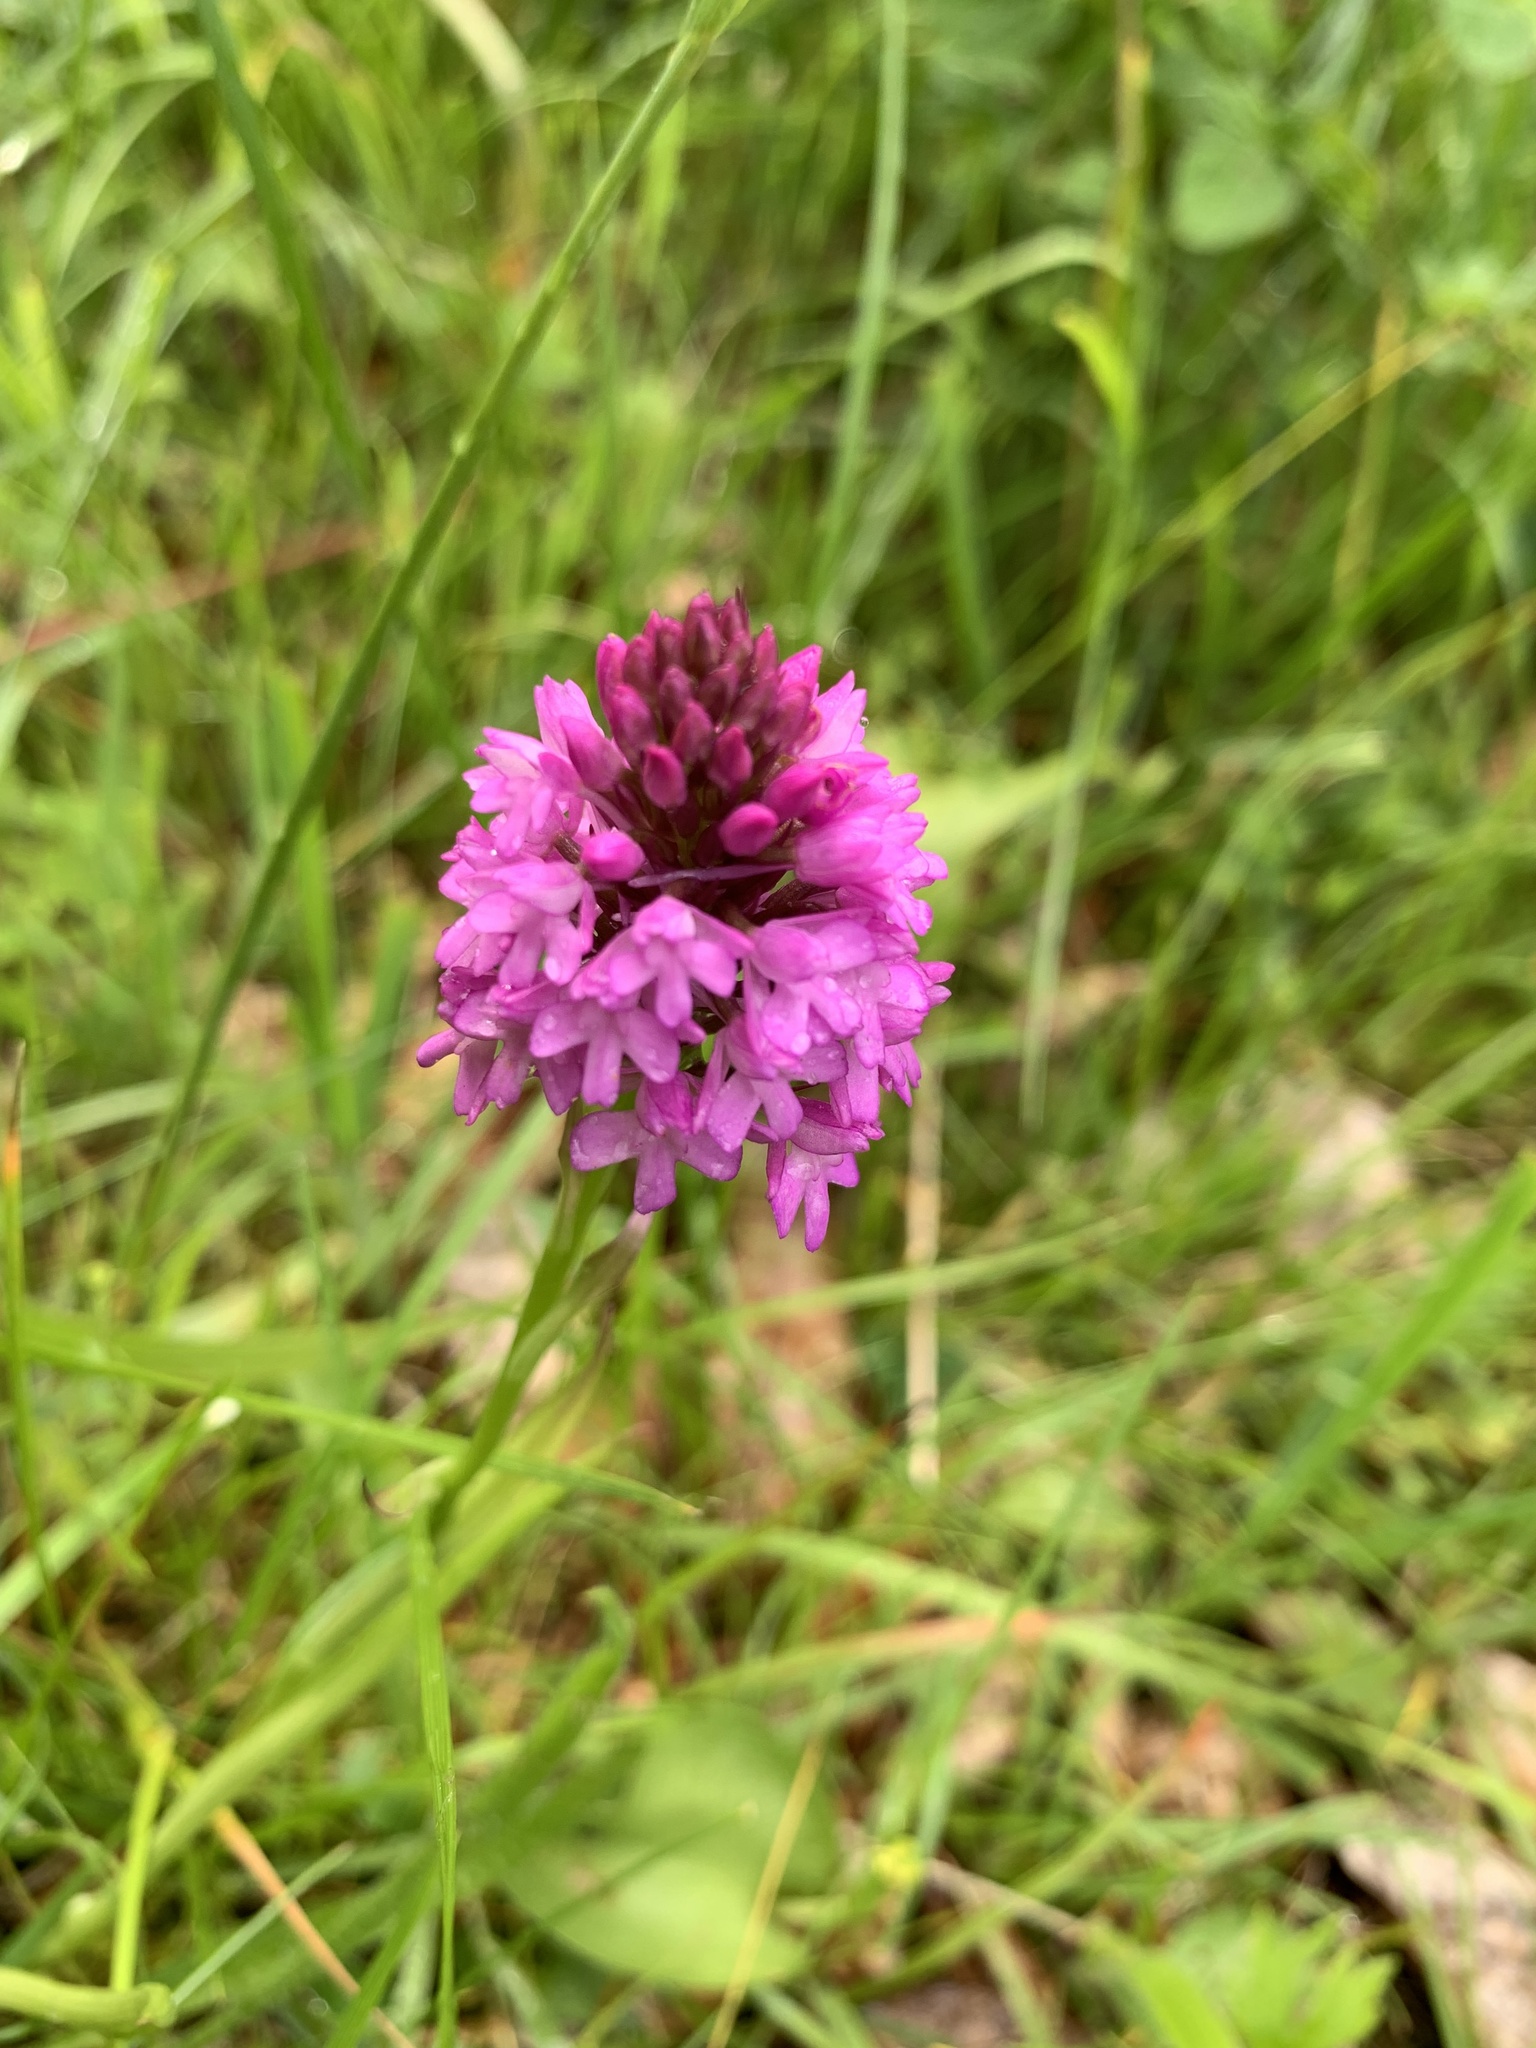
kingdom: Plantae
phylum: Tracheophyta
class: Liliopsida
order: Asparagales
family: Orchidaceae
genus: Anacamptis
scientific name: Anacamptis pyramidalis
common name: Pyramidal orchid
